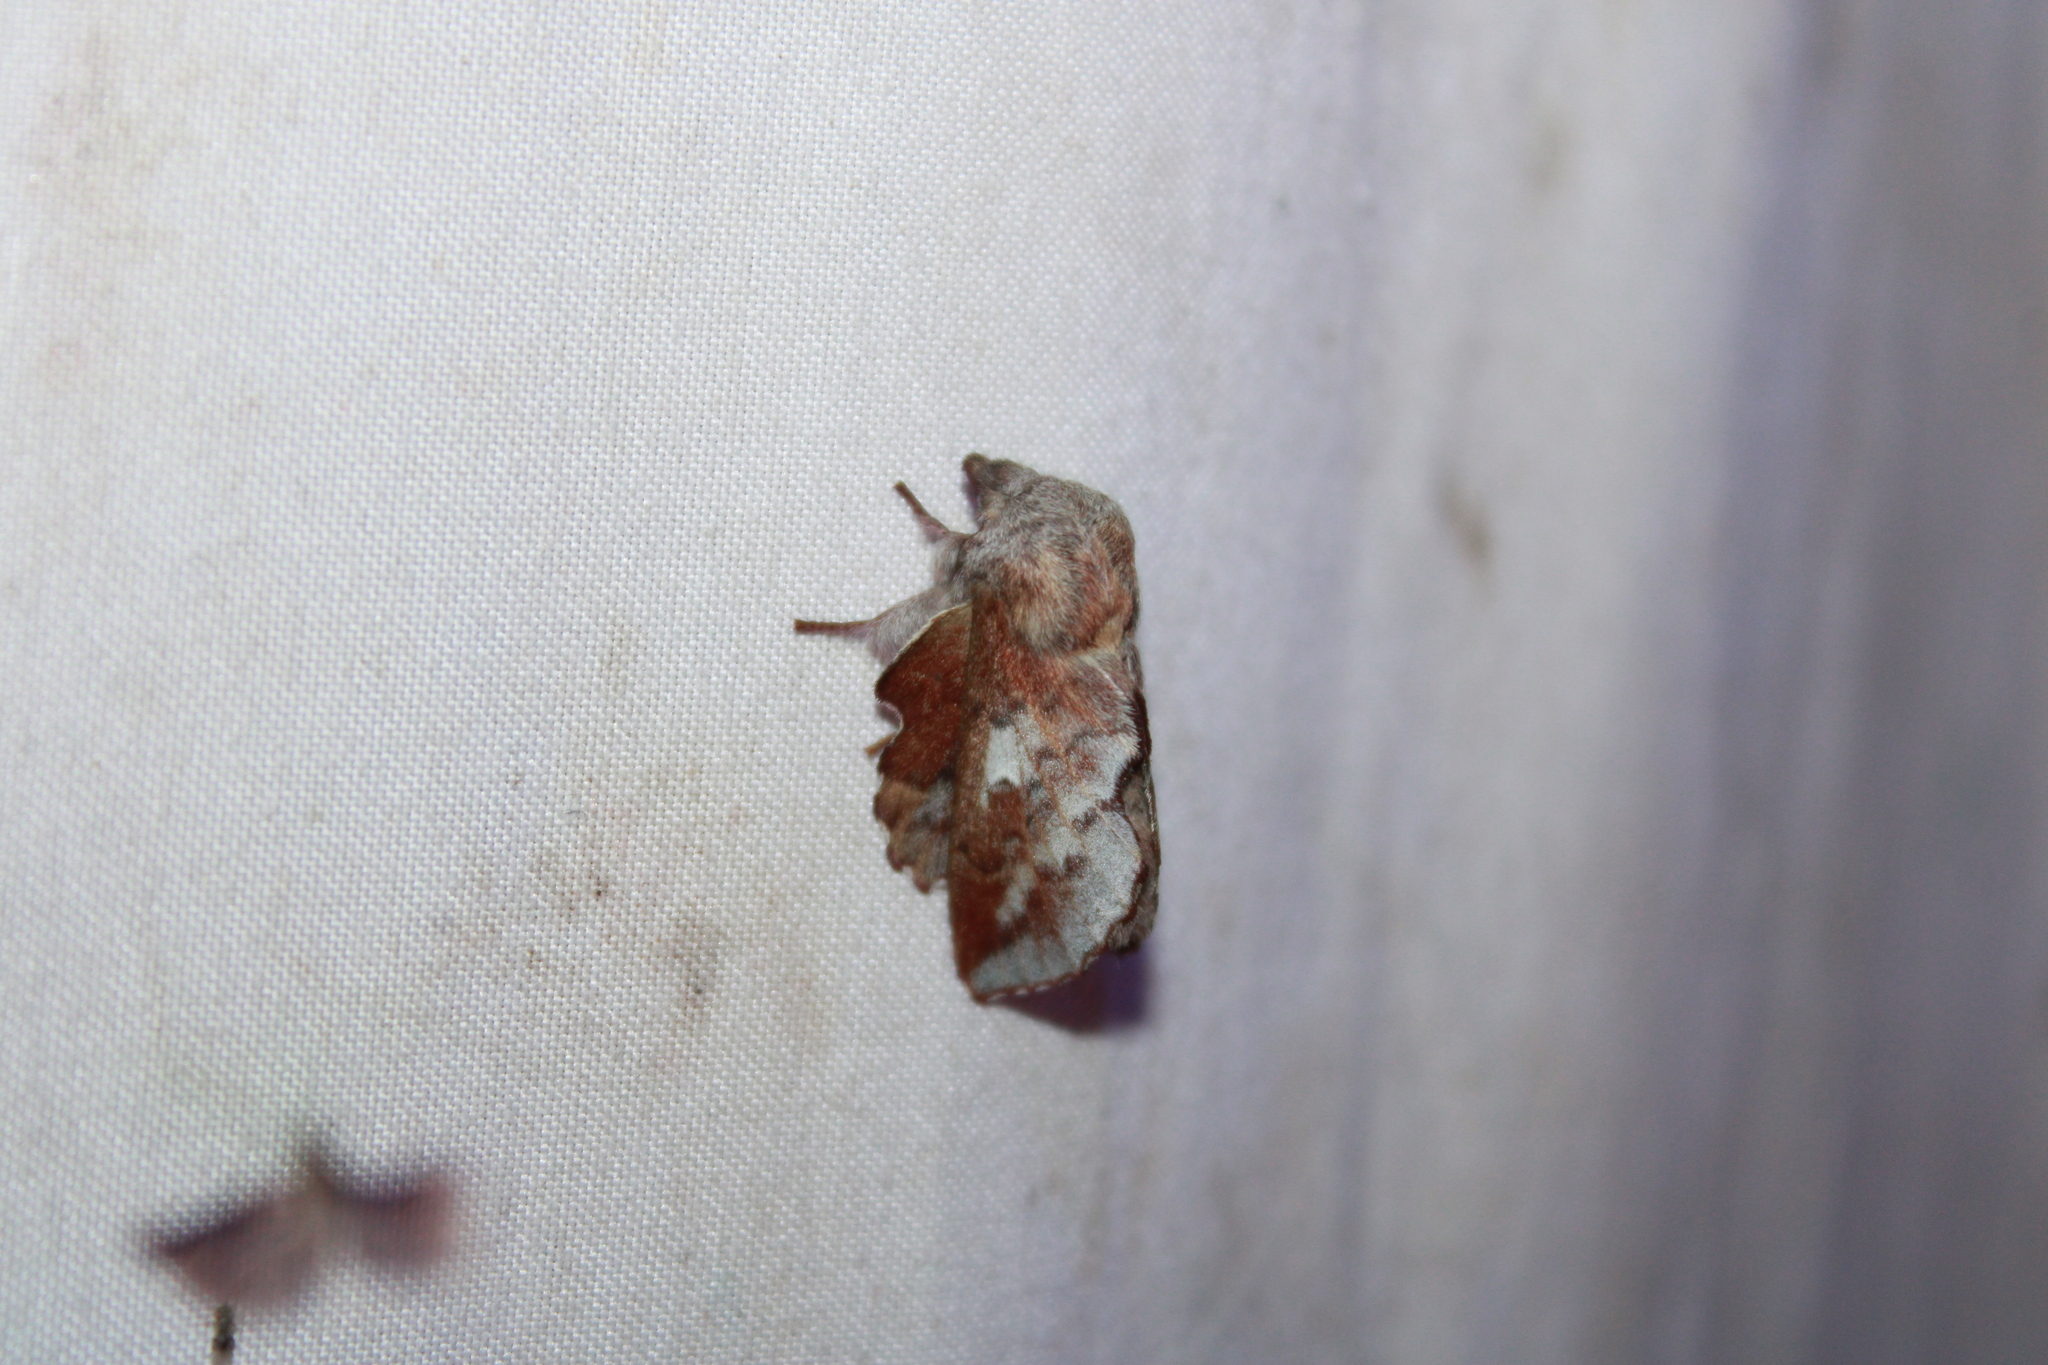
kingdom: Animalia
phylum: Arthropoda
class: Insecta
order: Lepidoptera
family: Lasiocampidae
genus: Phyllodesma
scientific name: Phyllodesma americana
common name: American lappet moth
